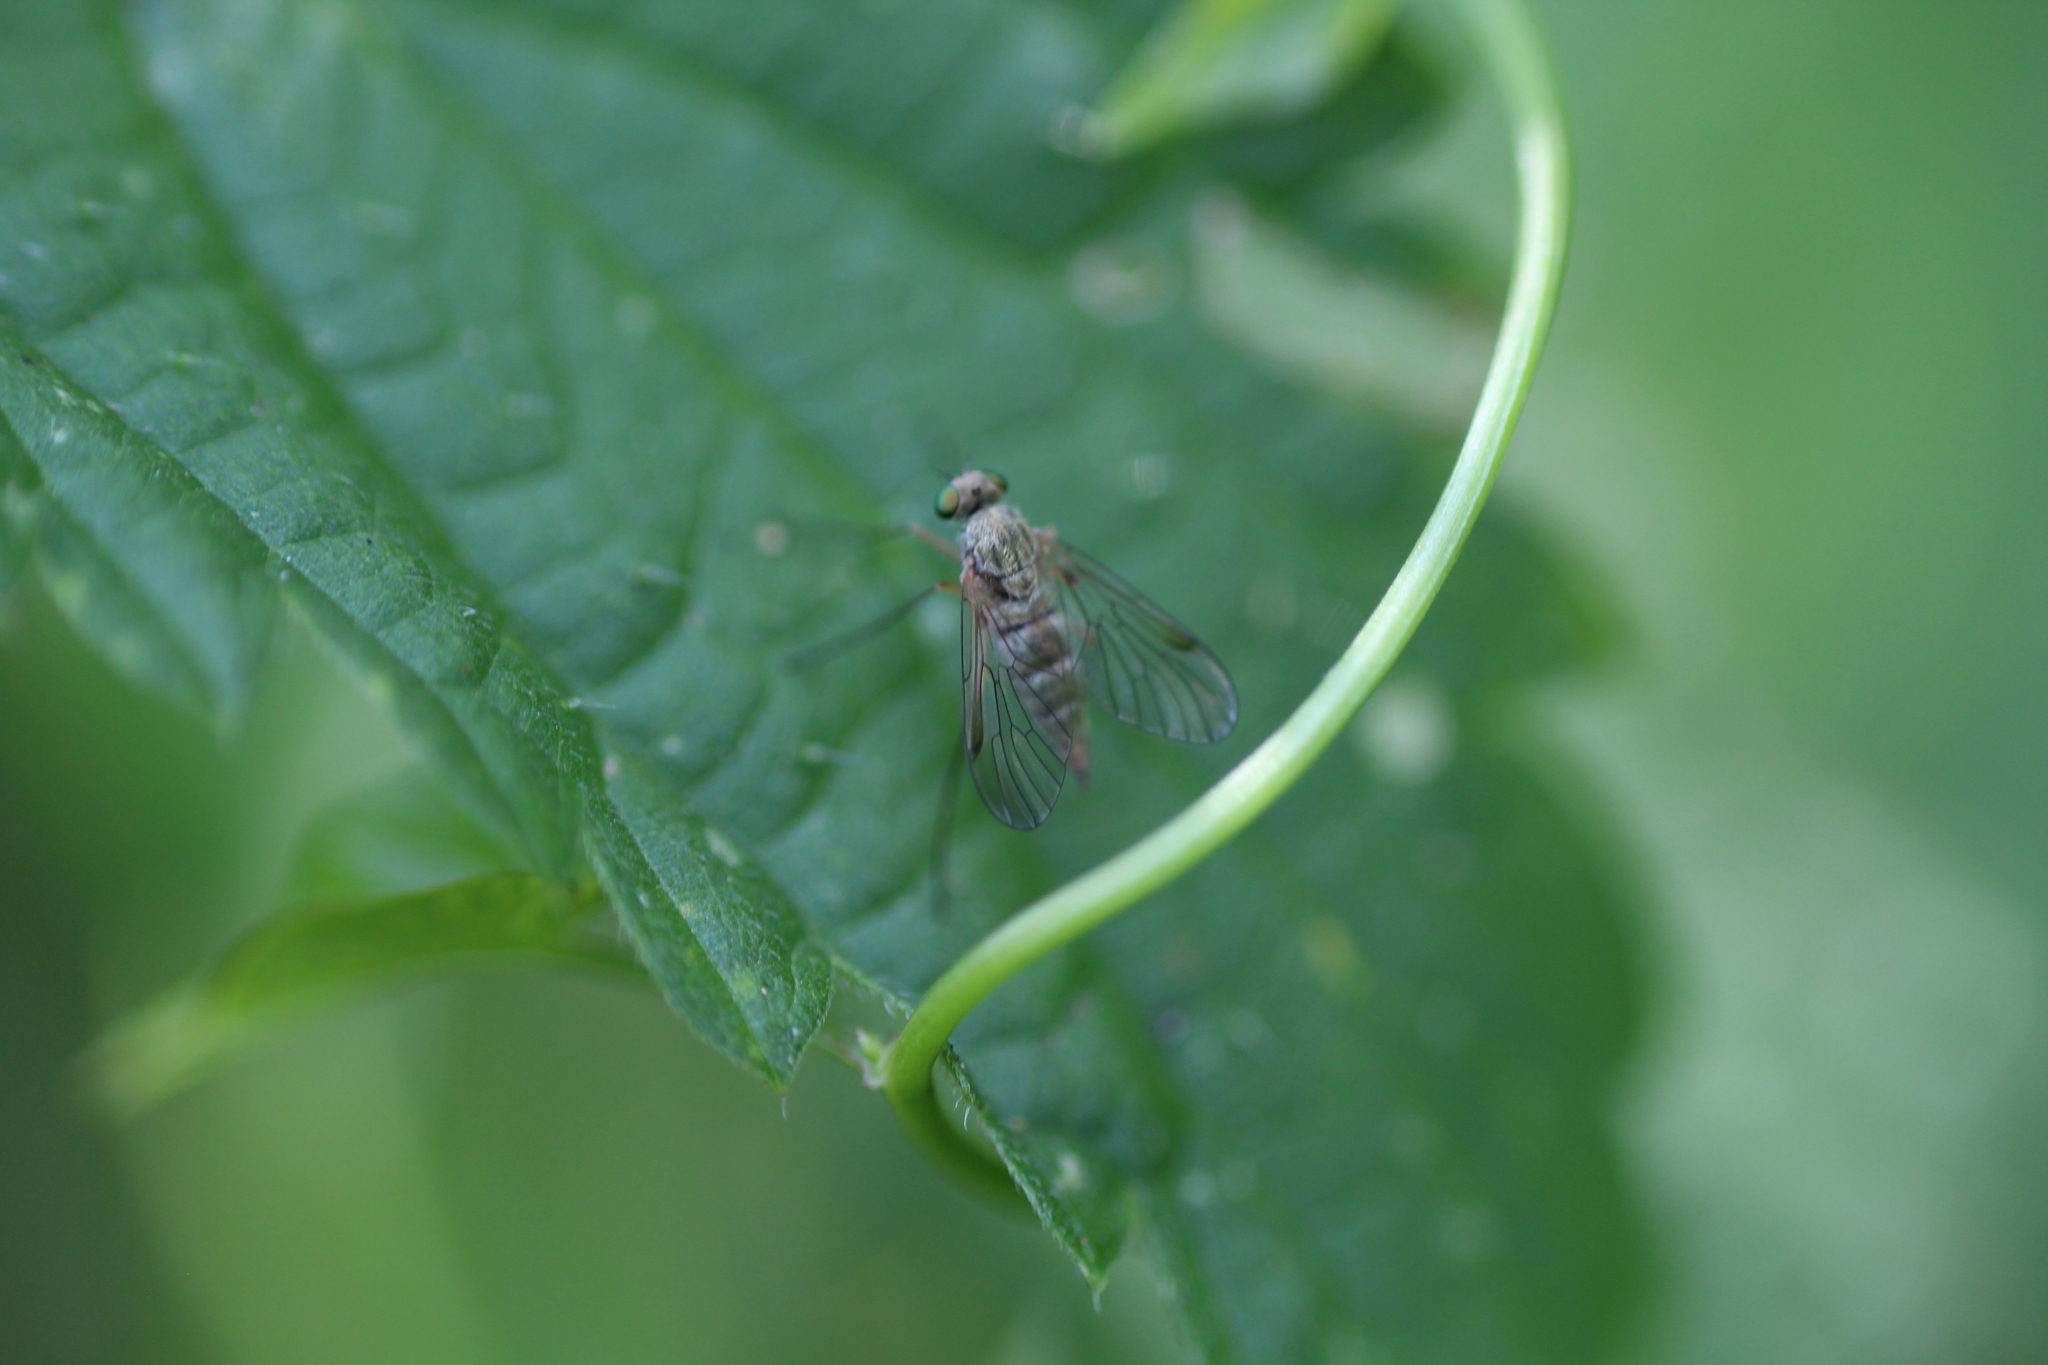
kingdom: Animalia
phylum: Arthropoda
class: Insecta
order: Diptera
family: Rhagionidae
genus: Chrysopilus
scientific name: Chrysopilus asiliformis
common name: Little snipefly
